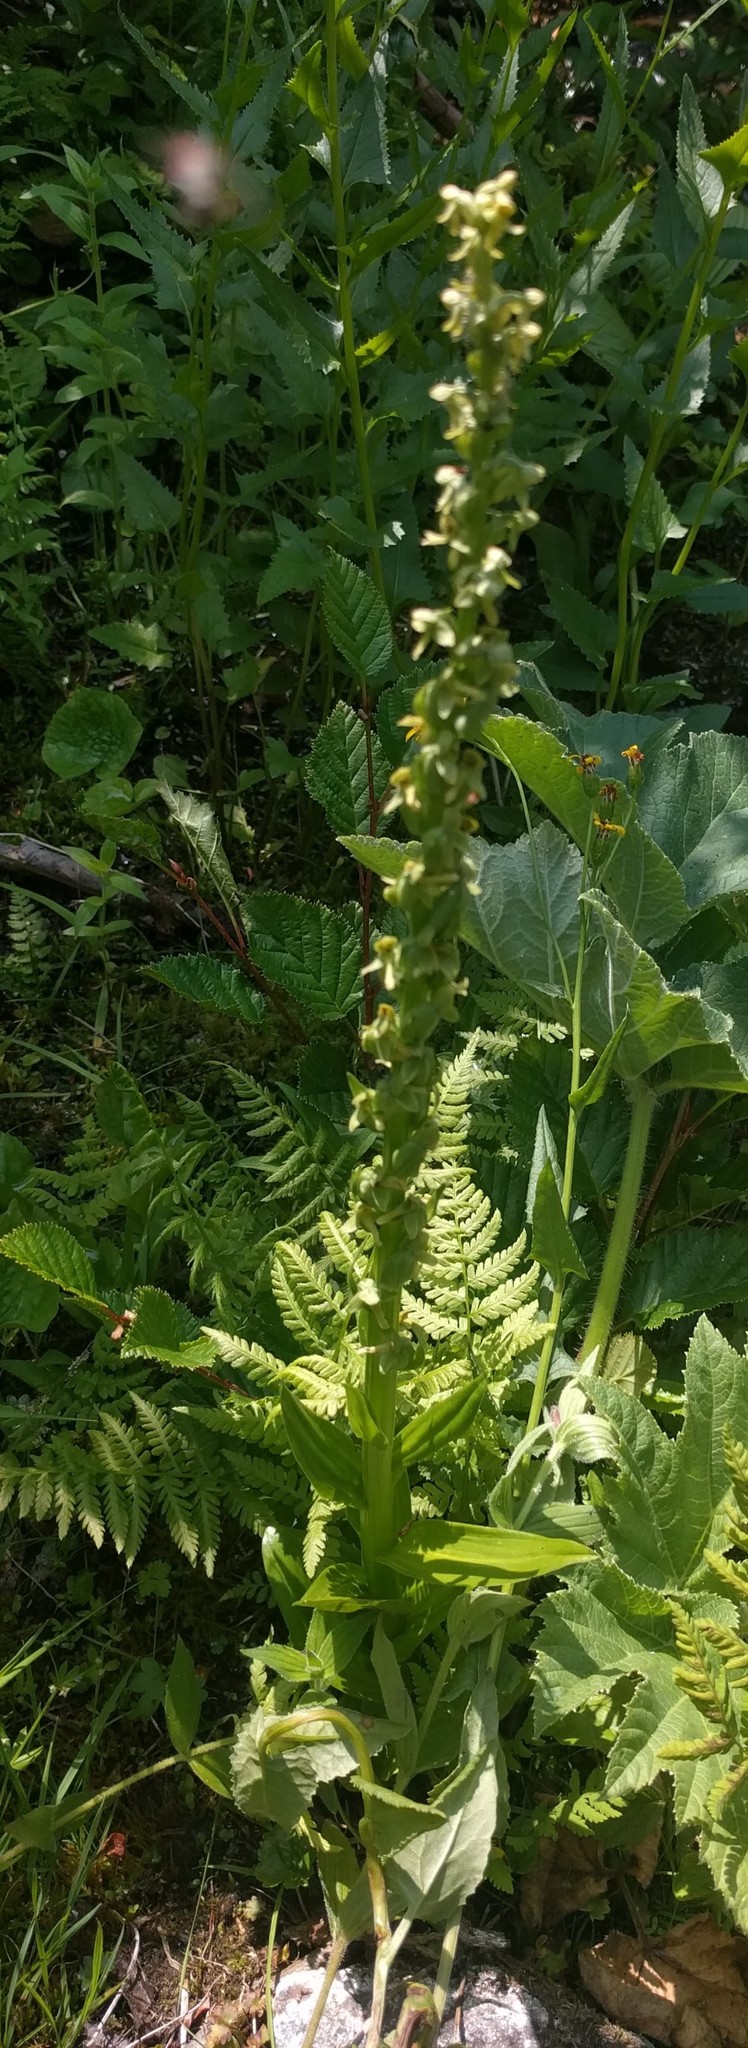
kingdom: Plantae
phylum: Tracheophyta
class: Liliopsida
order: Asparagales
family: Orchidaceae
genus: Platanthera
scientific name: Platanthera stricta
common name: Slender bog orchid
